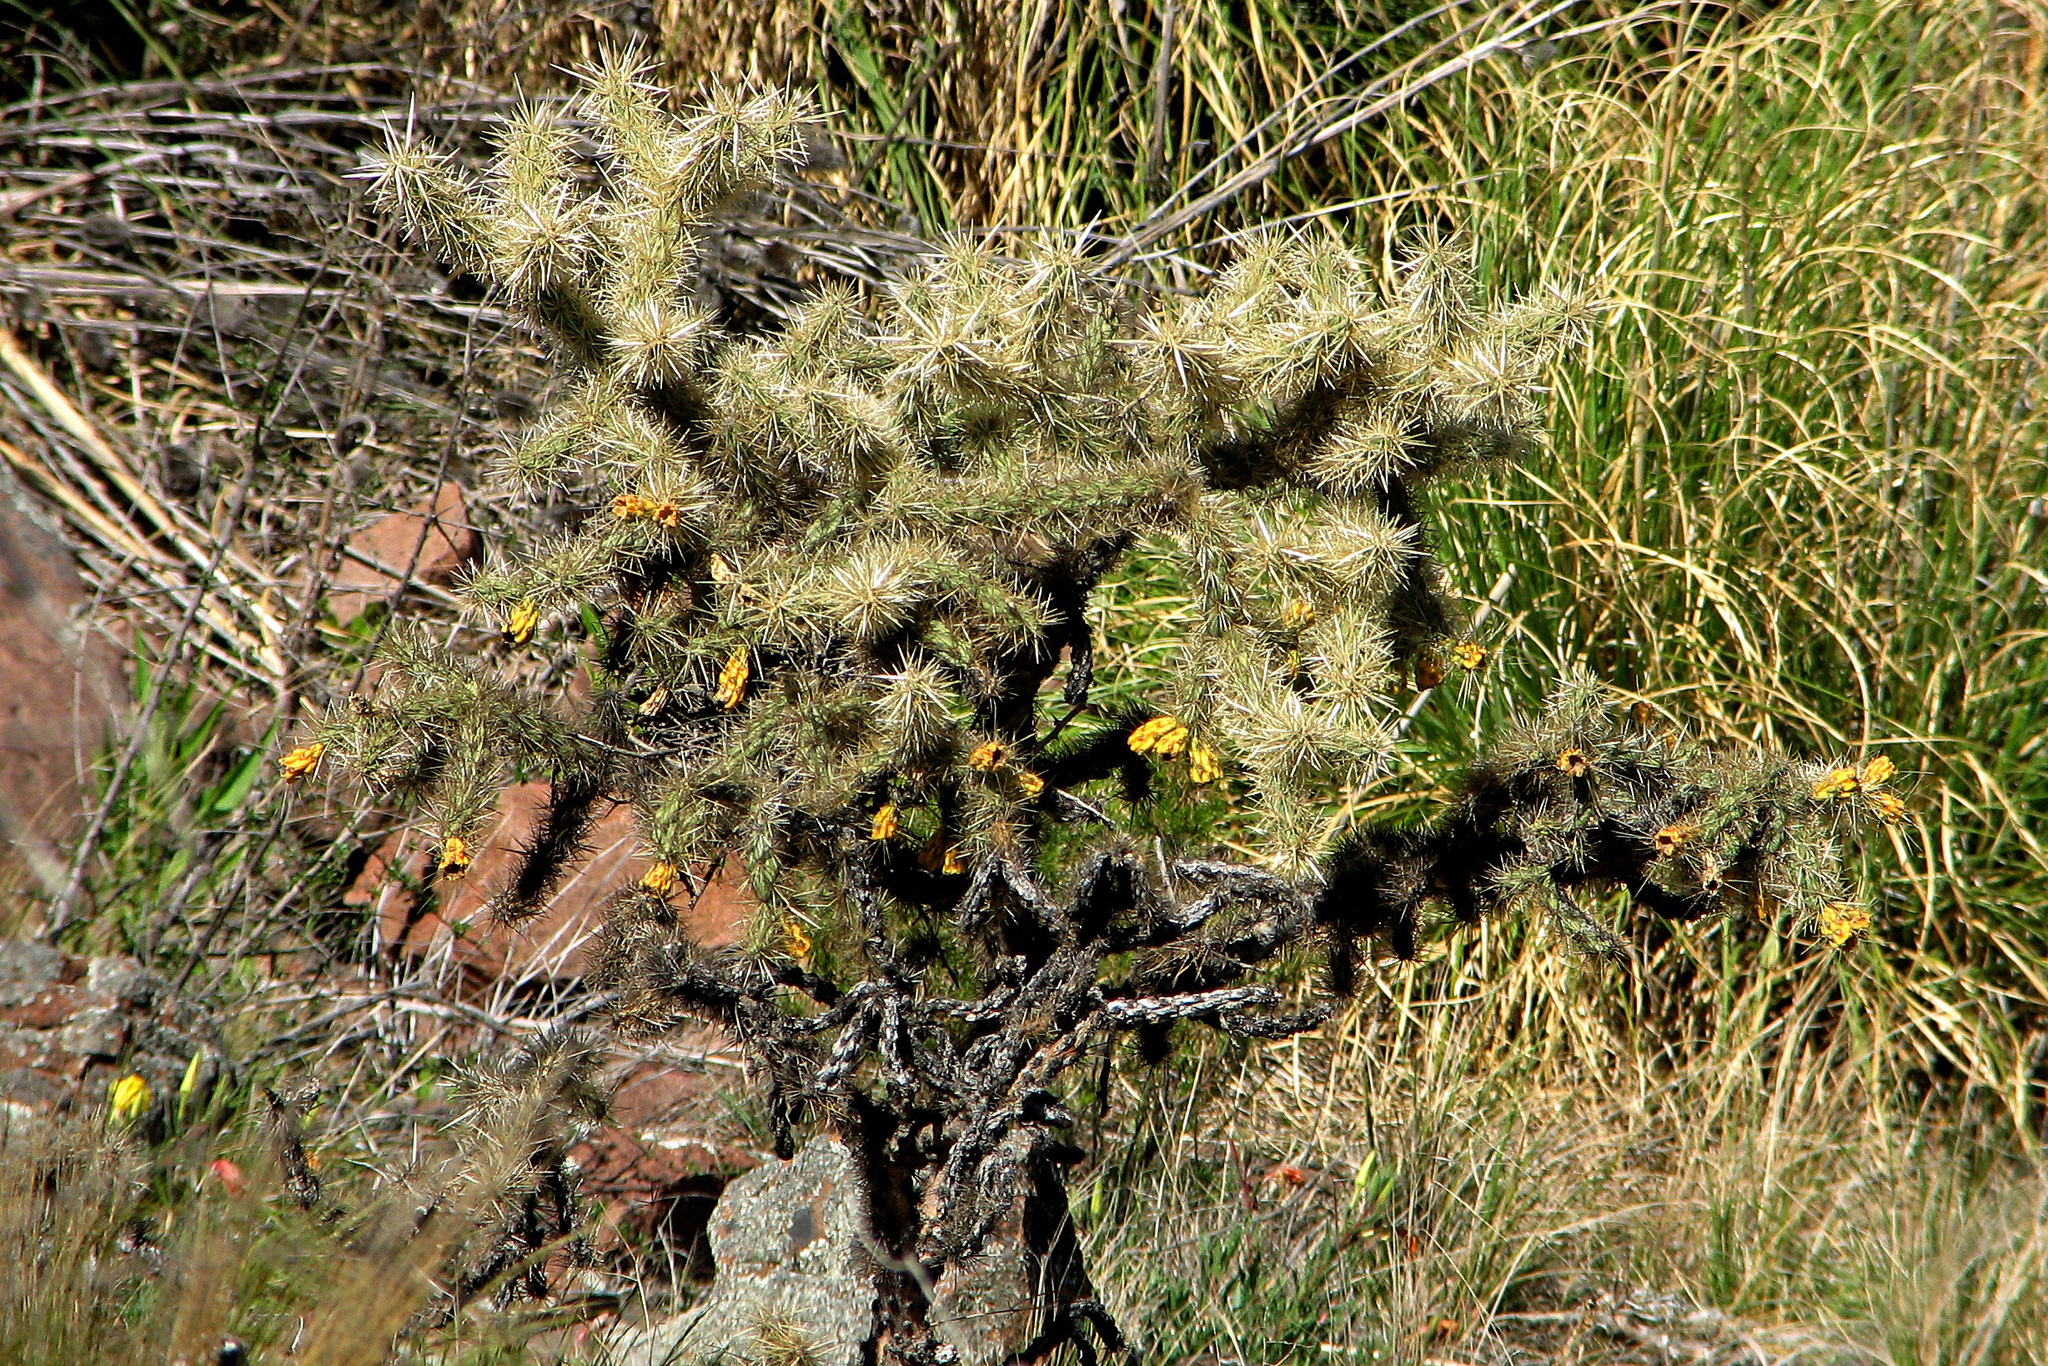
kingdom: Plantae
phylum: Tracheophyta
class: Magnoliopsida
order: Caryophyllales
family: Cactaceae
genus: Cylindropuntia
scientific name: Cylindropuntia tunicata
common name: Sheathed cholla
